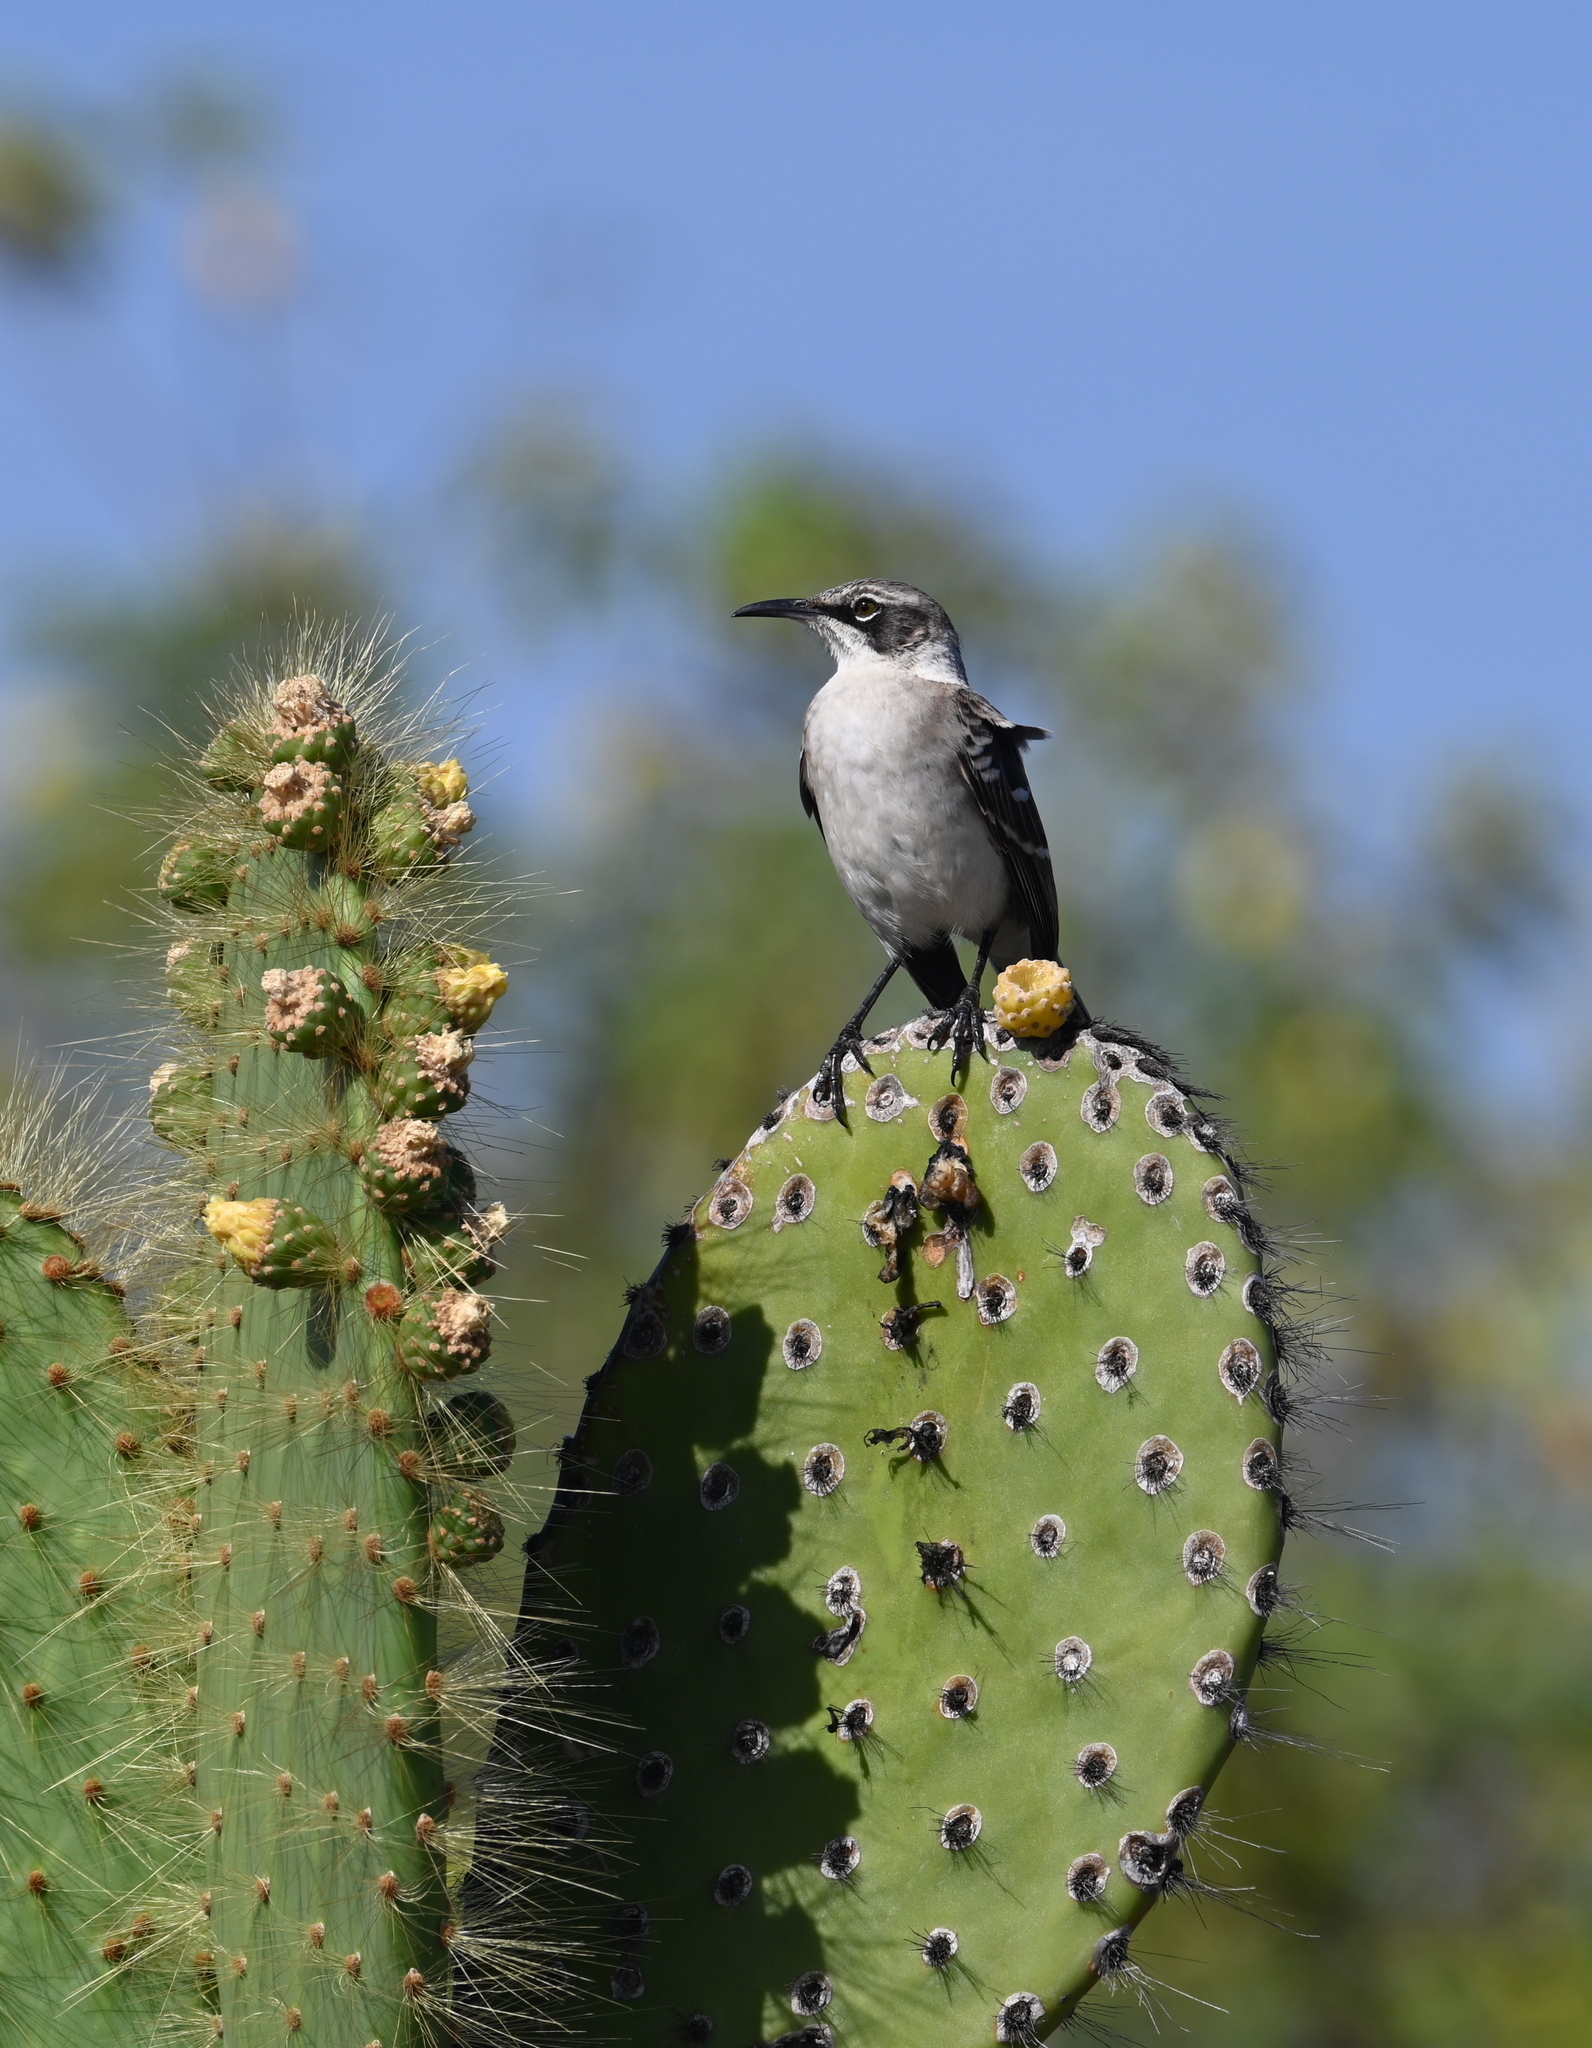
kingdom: Animalia
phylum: Chordata
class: Aves
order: Passeriformes
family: Mimidae
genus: Mimus
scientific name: Mimus parvulus
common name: Galapagos mockingbird
